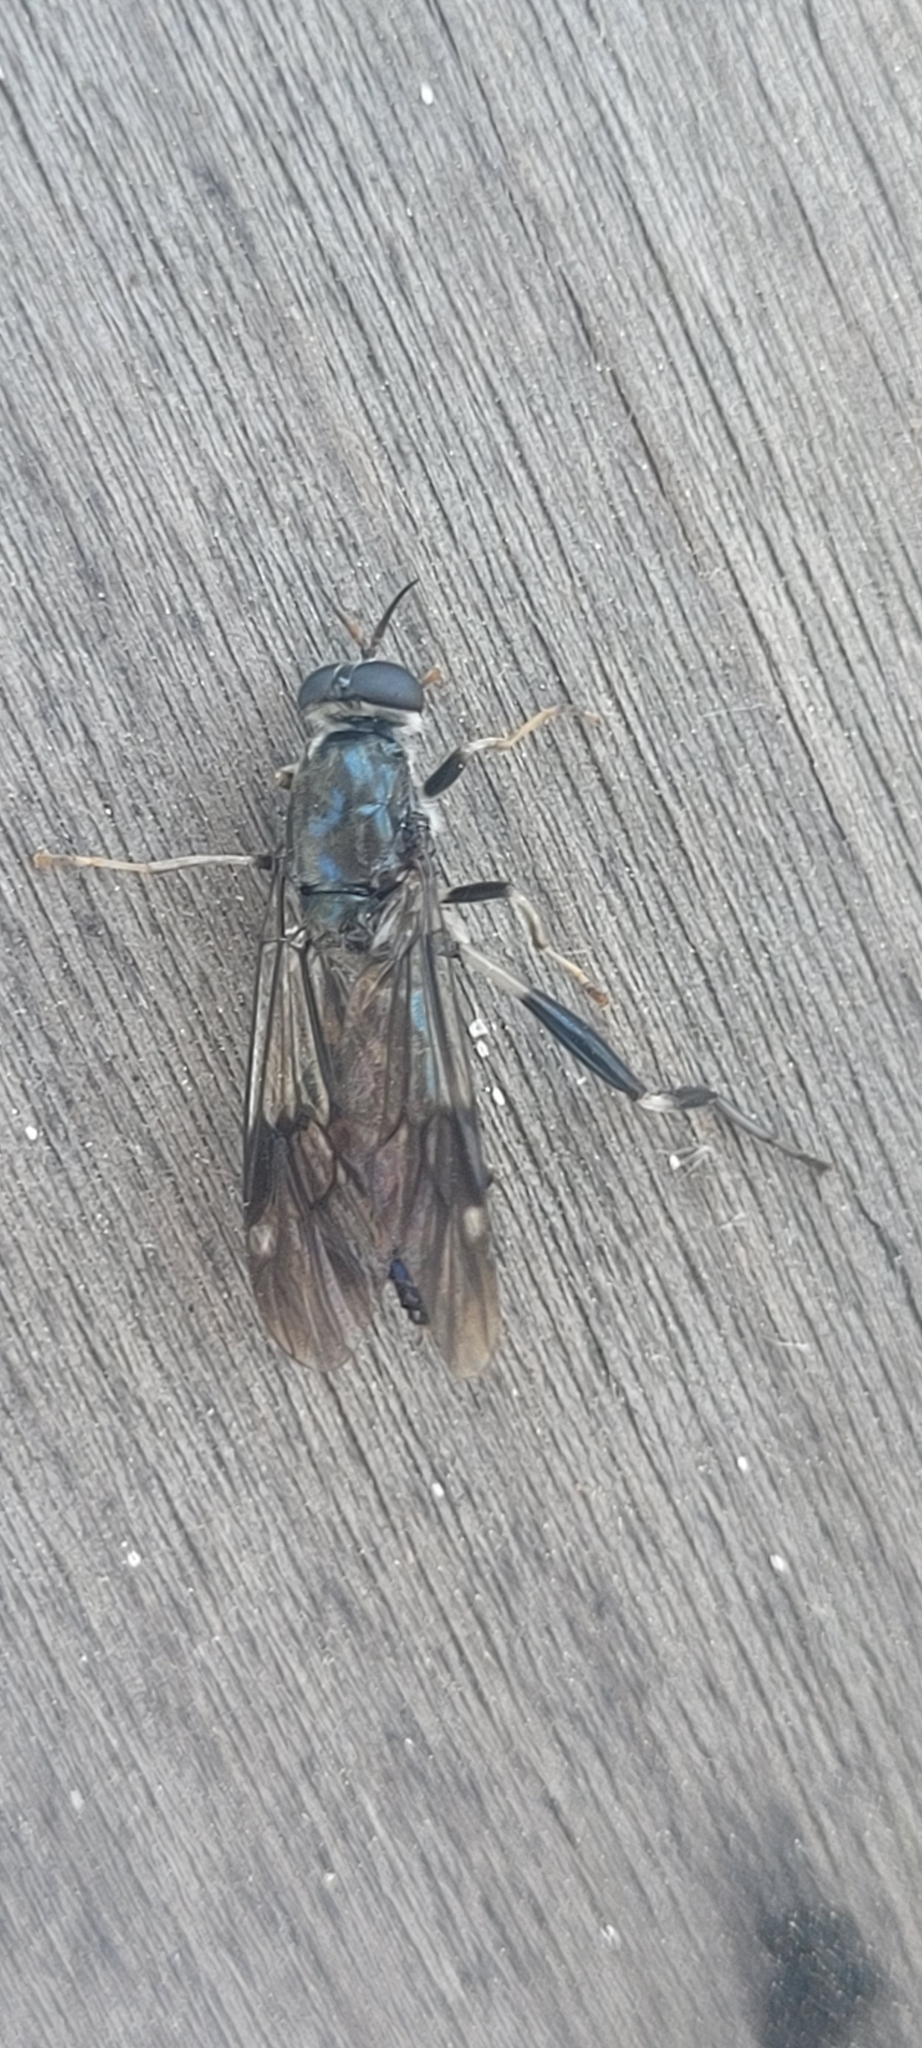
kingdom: Animalia
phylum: Arthropoda
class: Insecta
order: Diptera
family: Stratiomyidae
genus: Exaireta
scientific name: Exaireta spinigera
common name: Blue soldier fly
